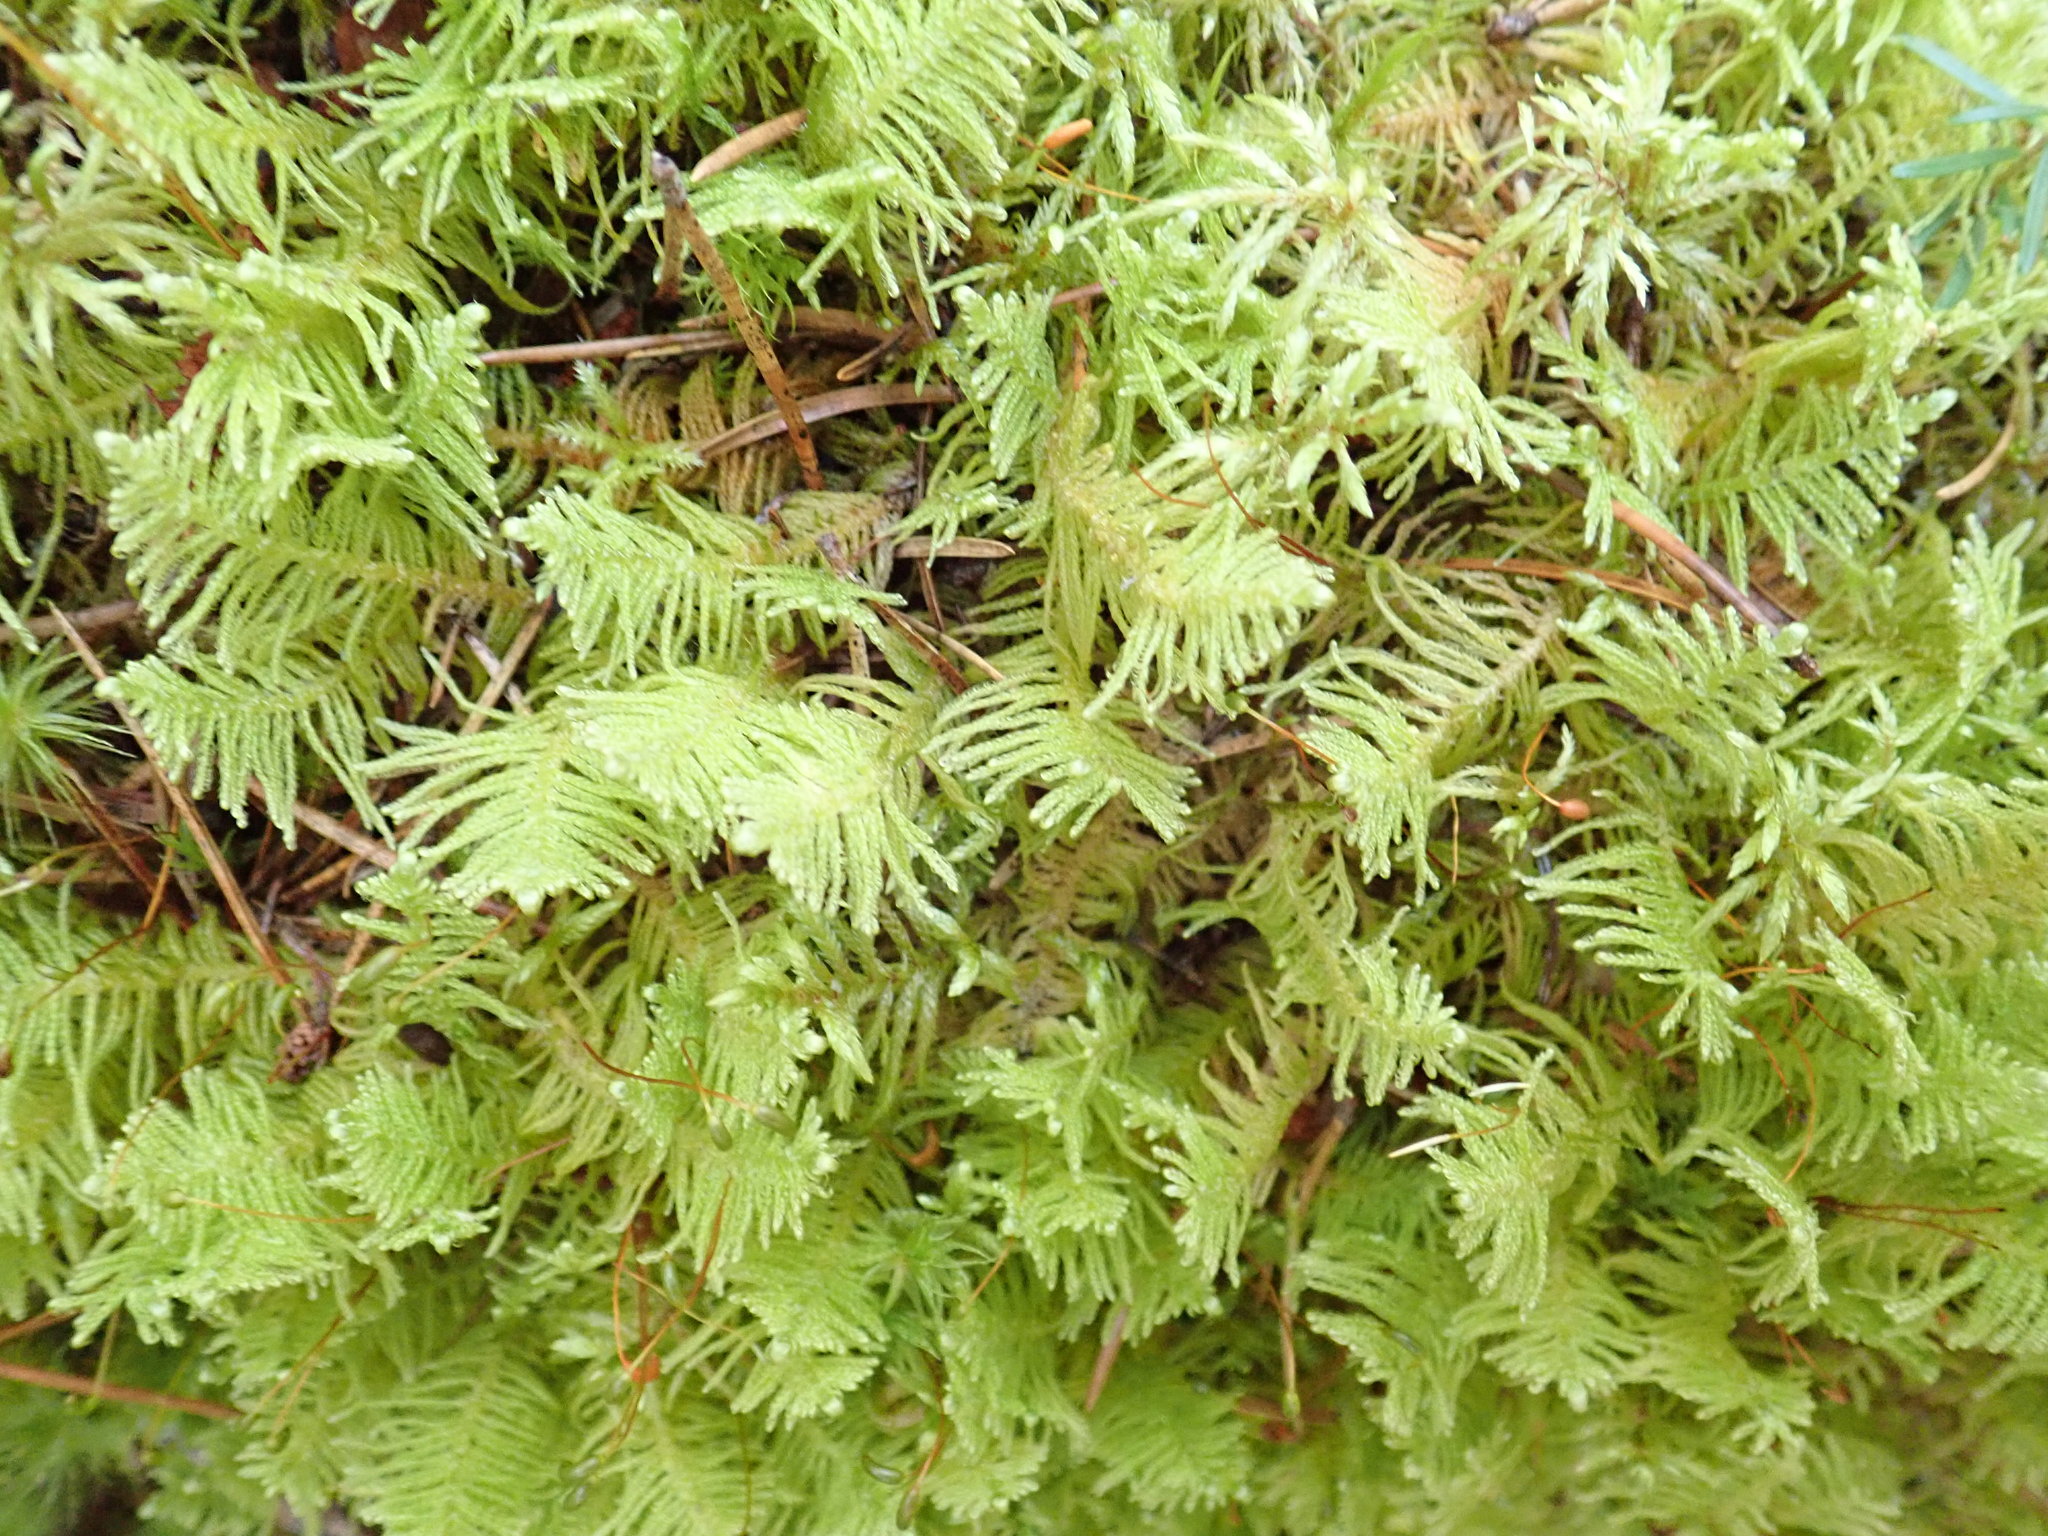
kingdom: Plantae
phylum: Bryophyta
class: Bryopsida
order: Hypnales
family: Pylaisiaceae
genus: Ptilium
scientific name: Ptilium crista-castrensis
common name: Knight's plume moss
